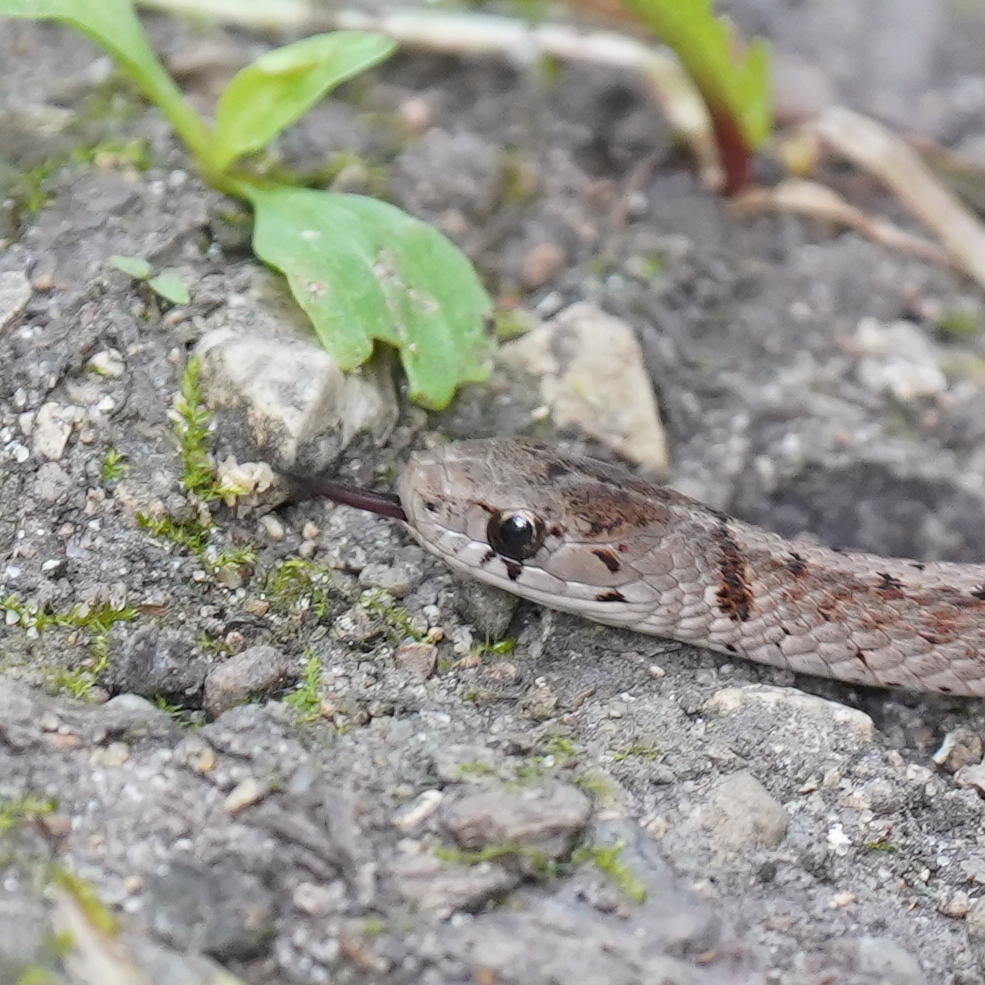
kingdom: Animalia
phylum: Chordata
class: Squamata
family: Colubridae
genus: Storeria
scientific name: Storeria dekayi
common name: (dekay’s) brown snake
